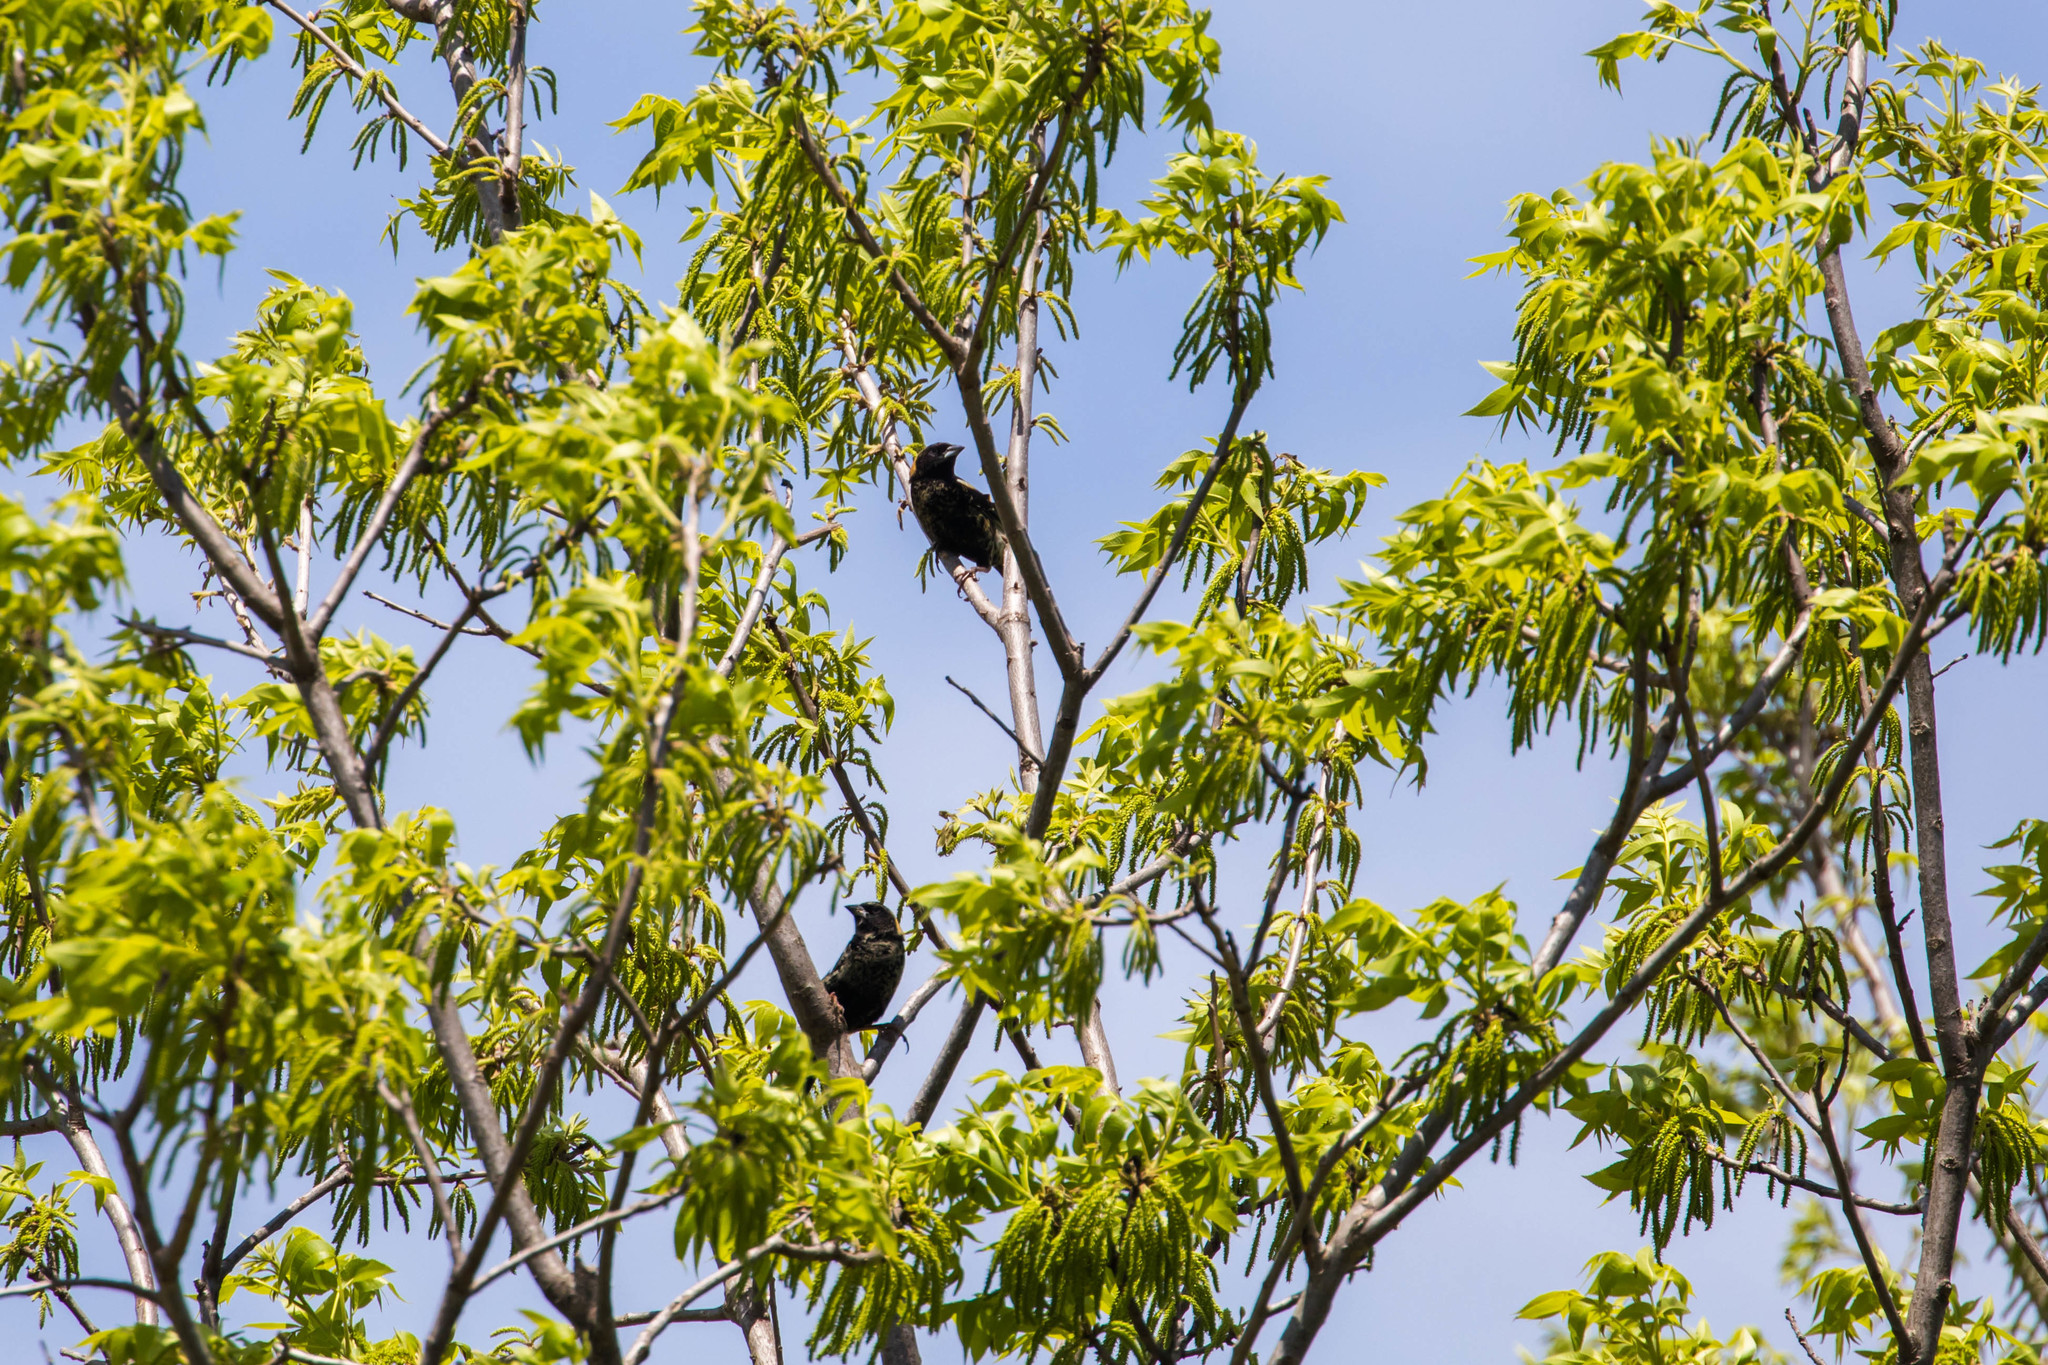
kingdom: Animalia
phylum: Chordata
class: Aves
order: Passeriformes
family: Icteridae
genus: Dolichonyx
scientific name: Dolichonyx oryzivorus
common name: Bobolink
